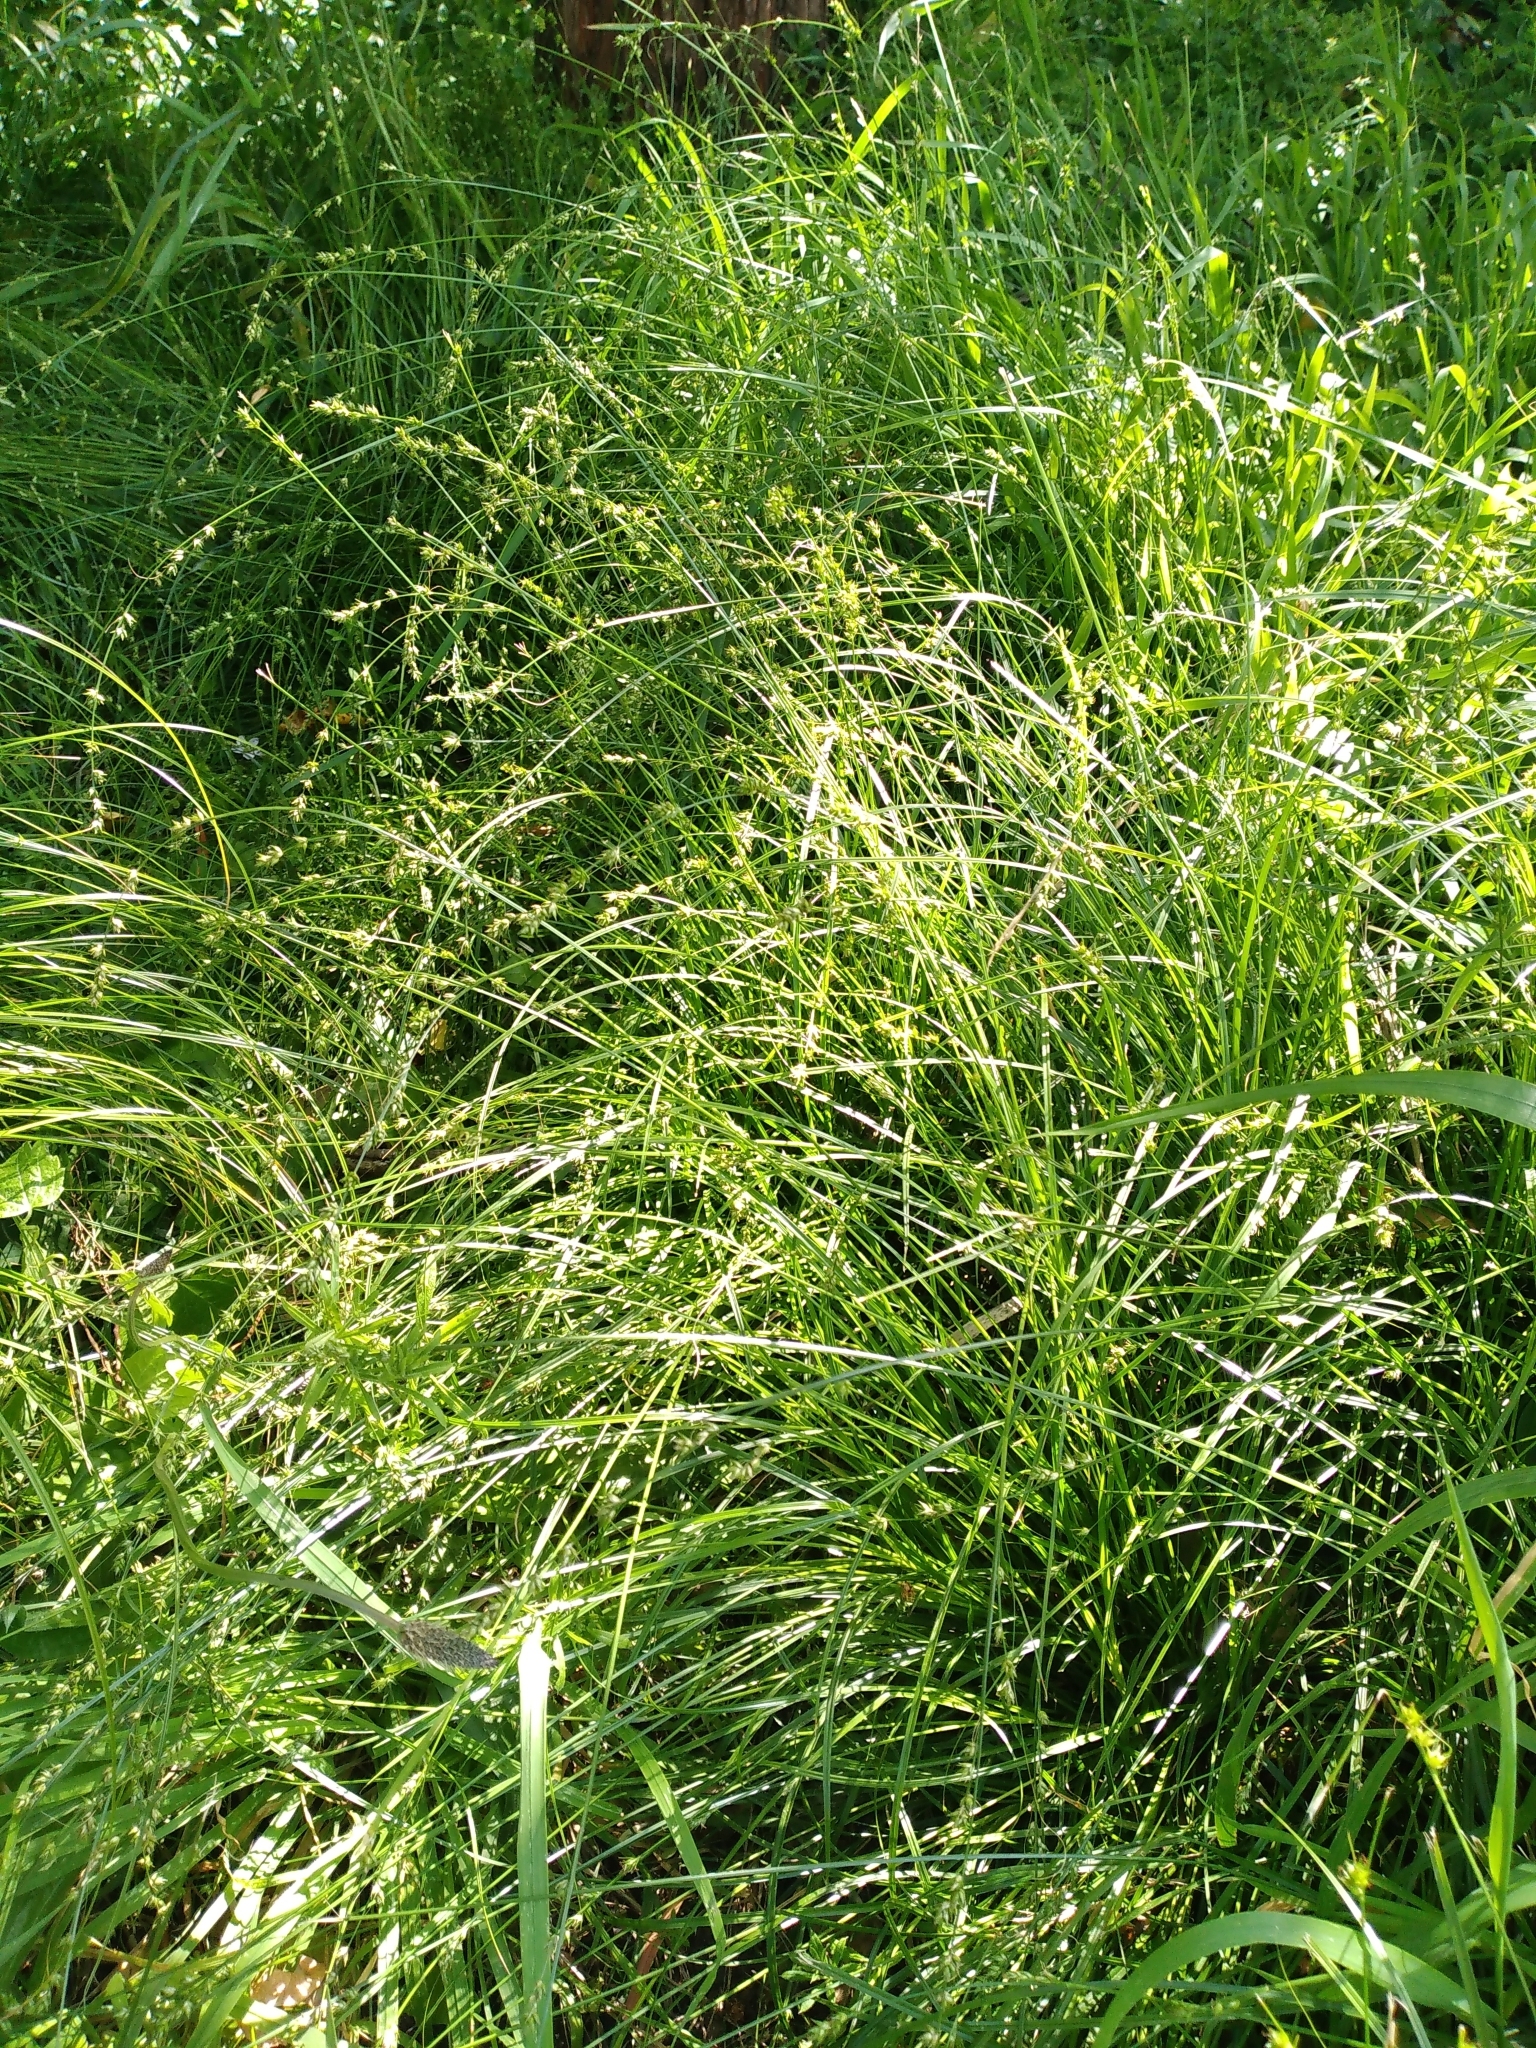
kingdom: Plantae
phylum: Tracheophyta
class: Liliopsida
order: Poales
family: Cyperaceae
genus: Carex
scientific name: Carex divulsa
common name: Grassland sedge
